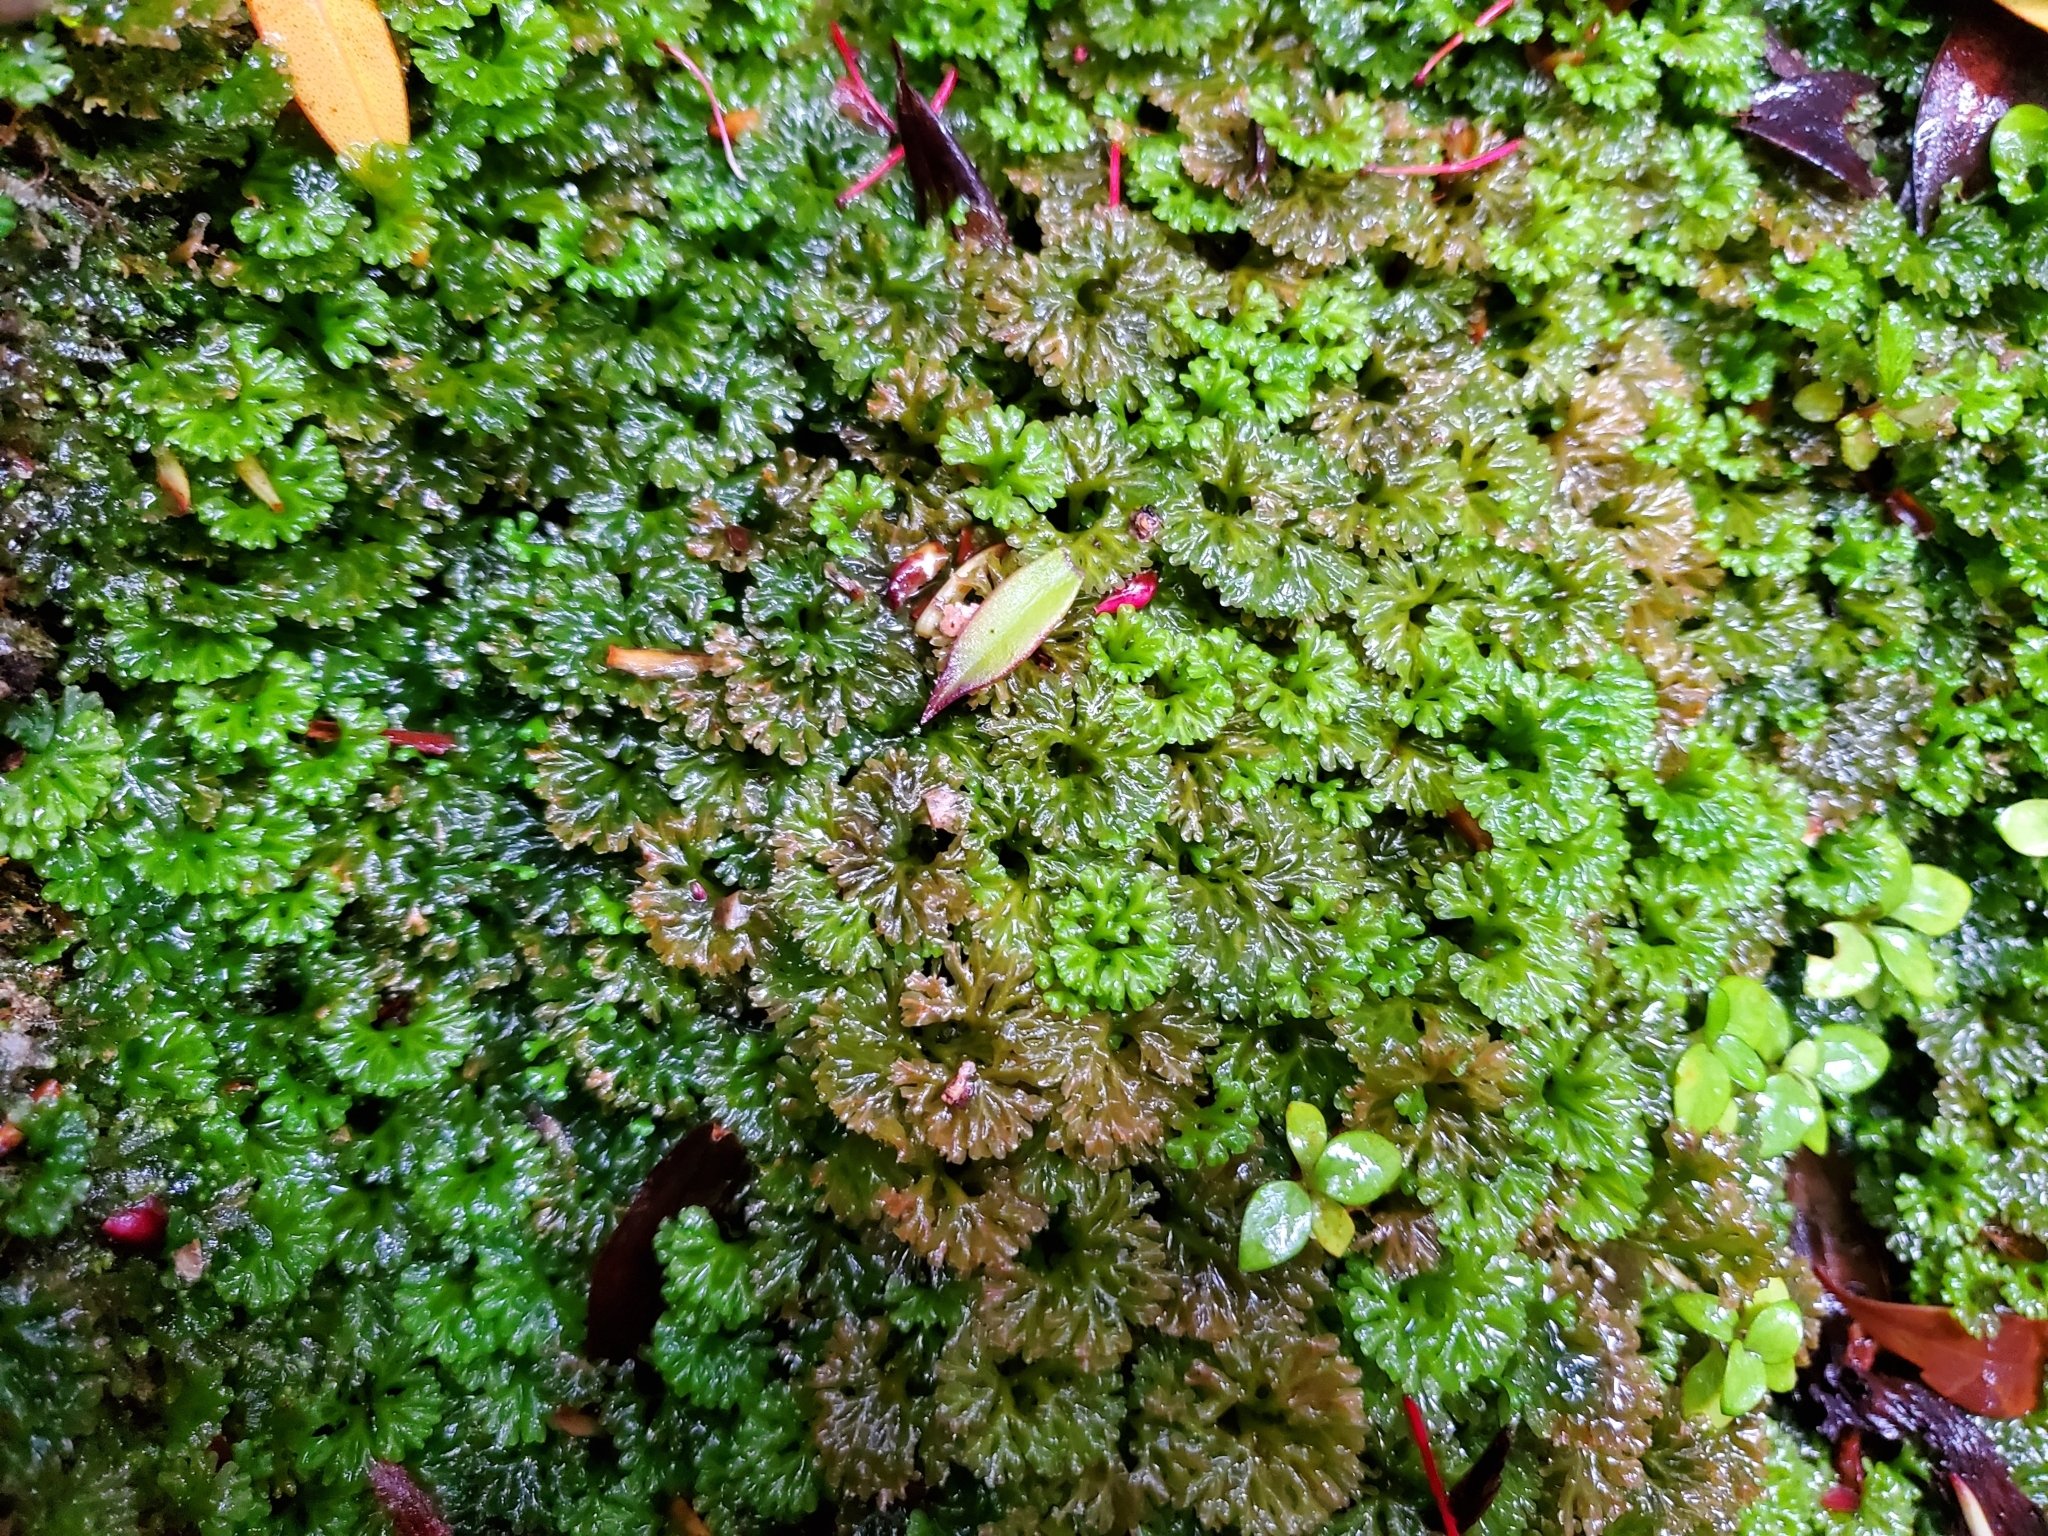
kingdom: Plantae
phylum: Marchantiophyta
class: Jungermanniopsida
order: Pallaviciniales
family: Hymenophytaceae
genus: Hymenophyton
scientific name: Hymenophyton flabellatum
